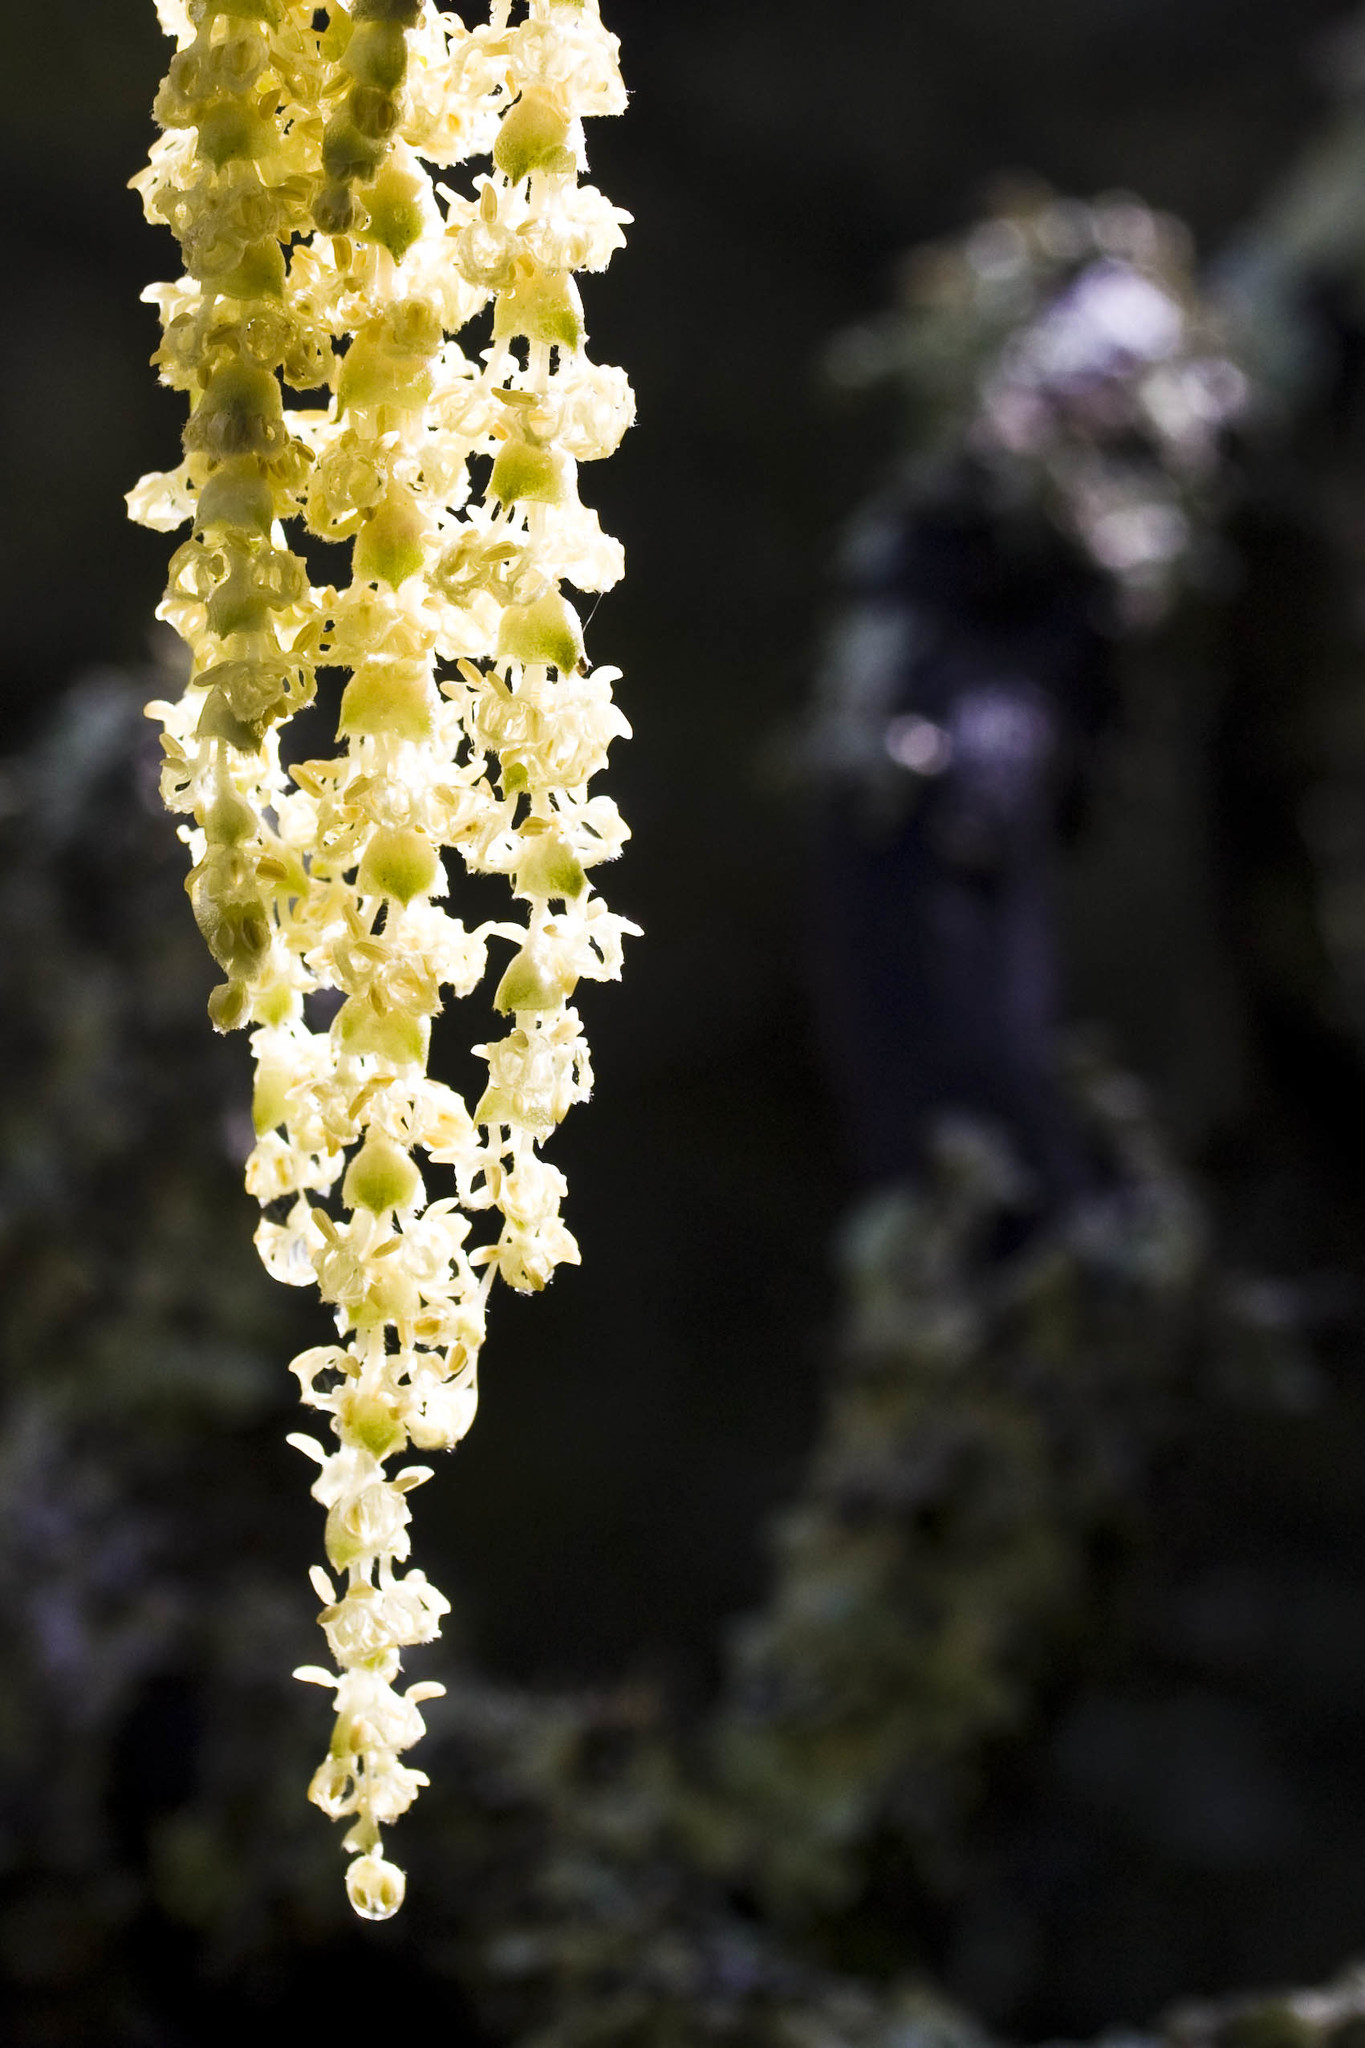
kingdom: Plantae
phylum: Tracheophyta
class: Magnoliopsida
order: Garryales
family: Garryaceae
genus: Garrya
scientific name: Garrya elliptica
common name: Silk-tassel
